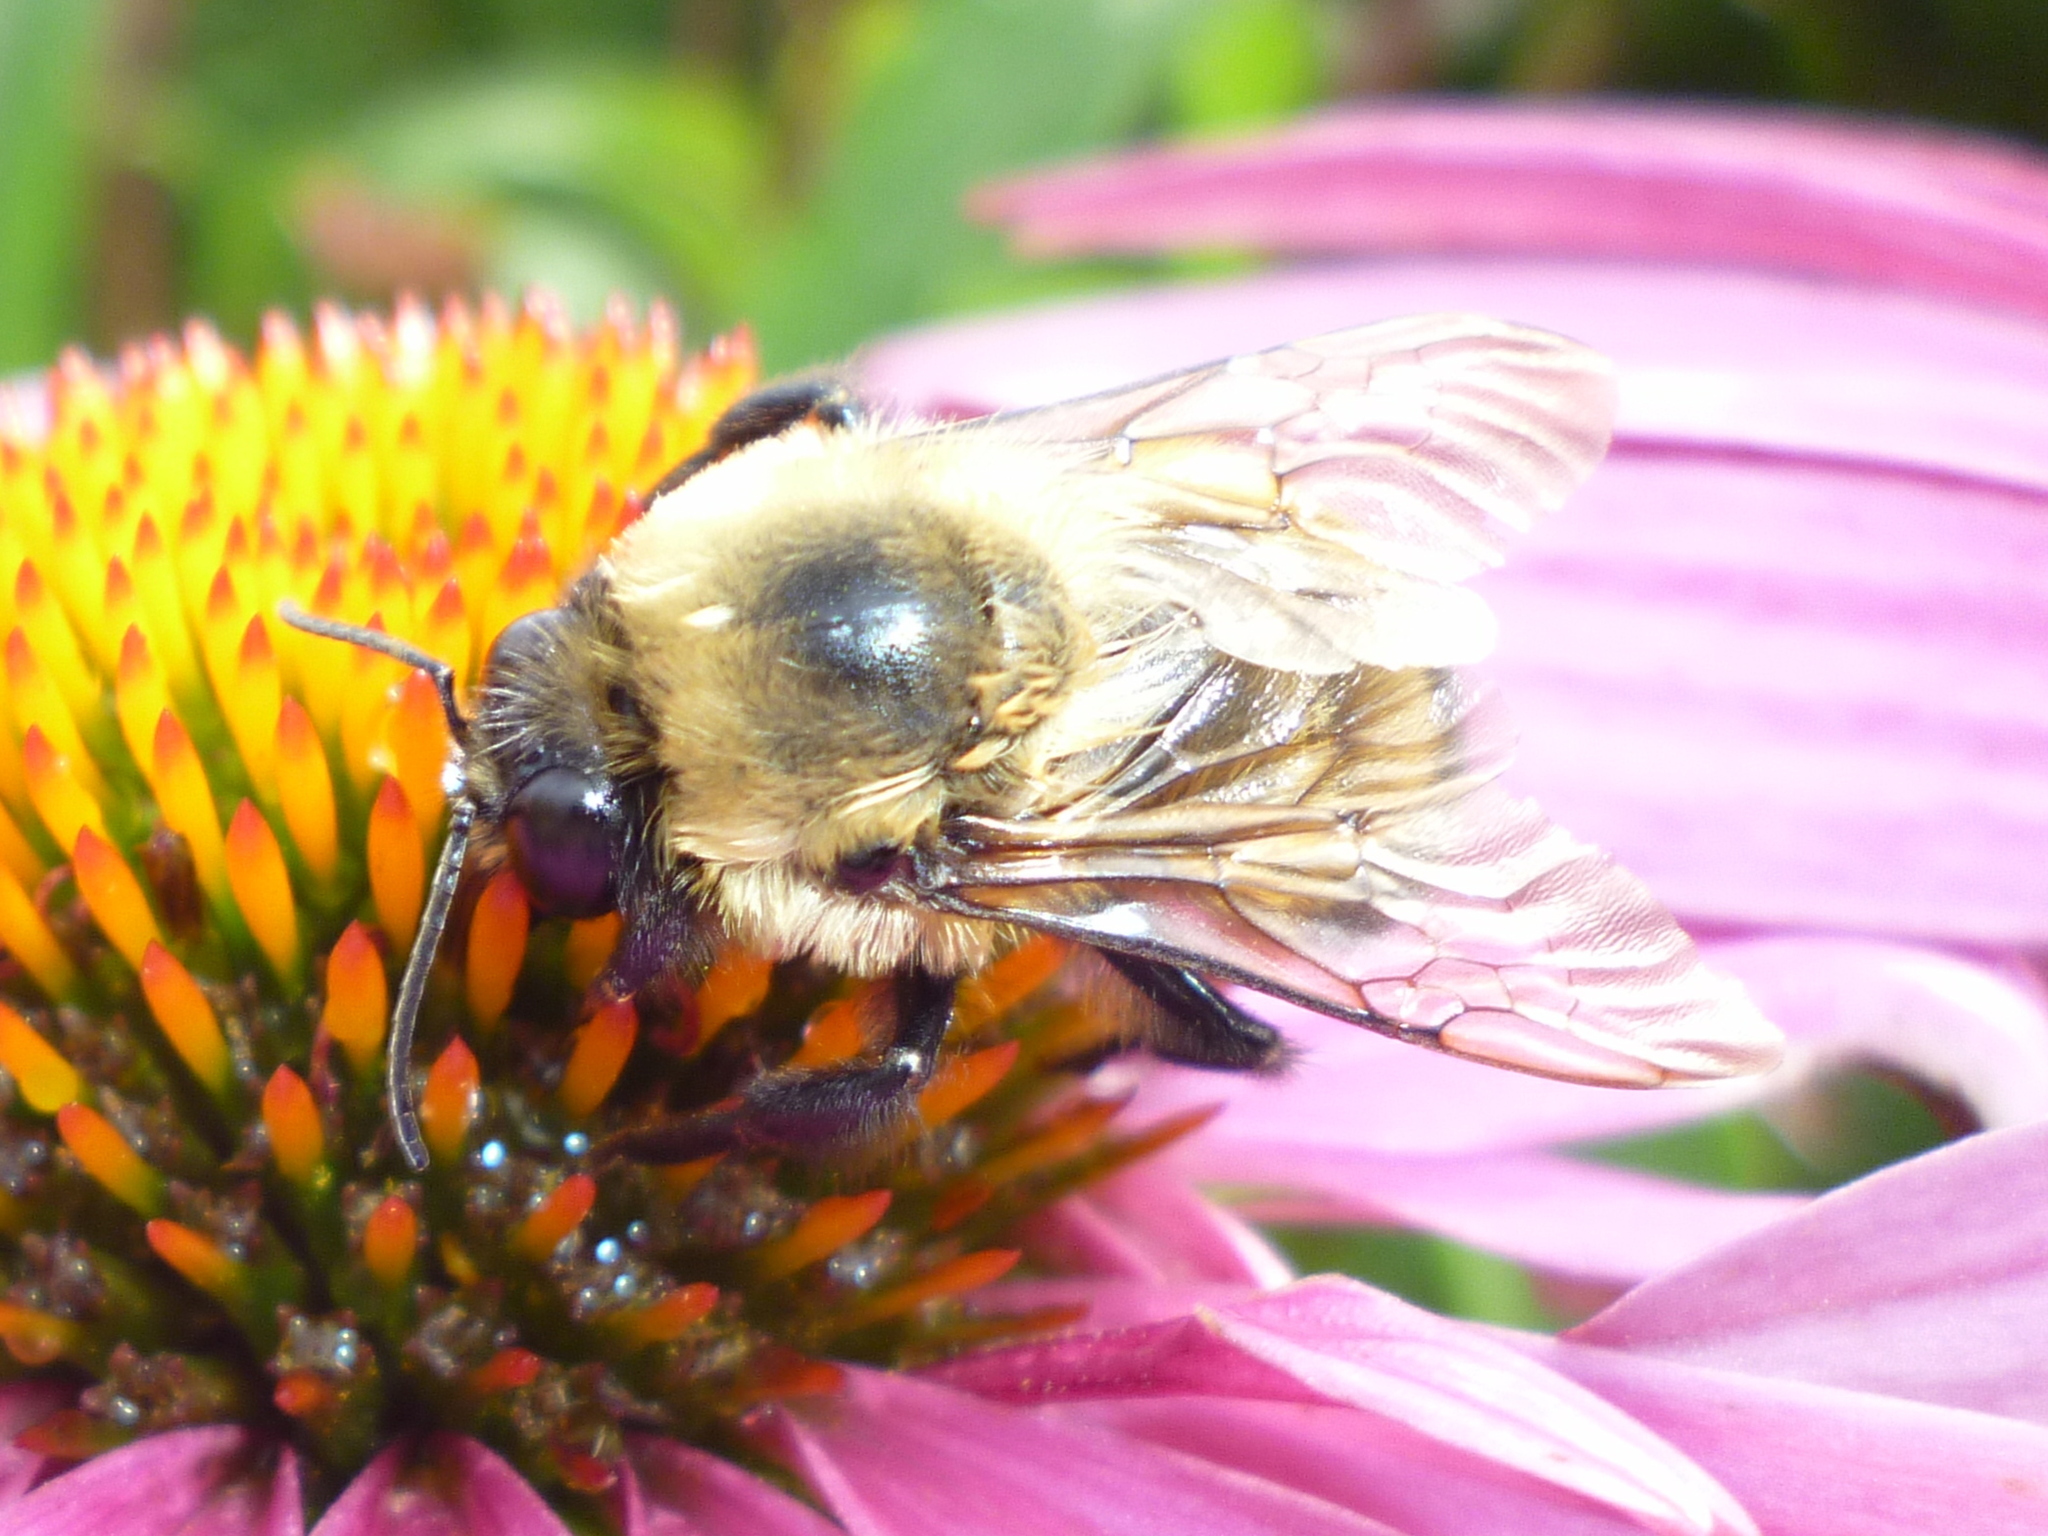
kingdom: Animalia
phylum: Arthropoda
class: Insecta
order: Hymenoptera
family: Apidae
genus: Bombus
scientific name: Bombus griseocollis
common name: Brown-belted bumble bee
